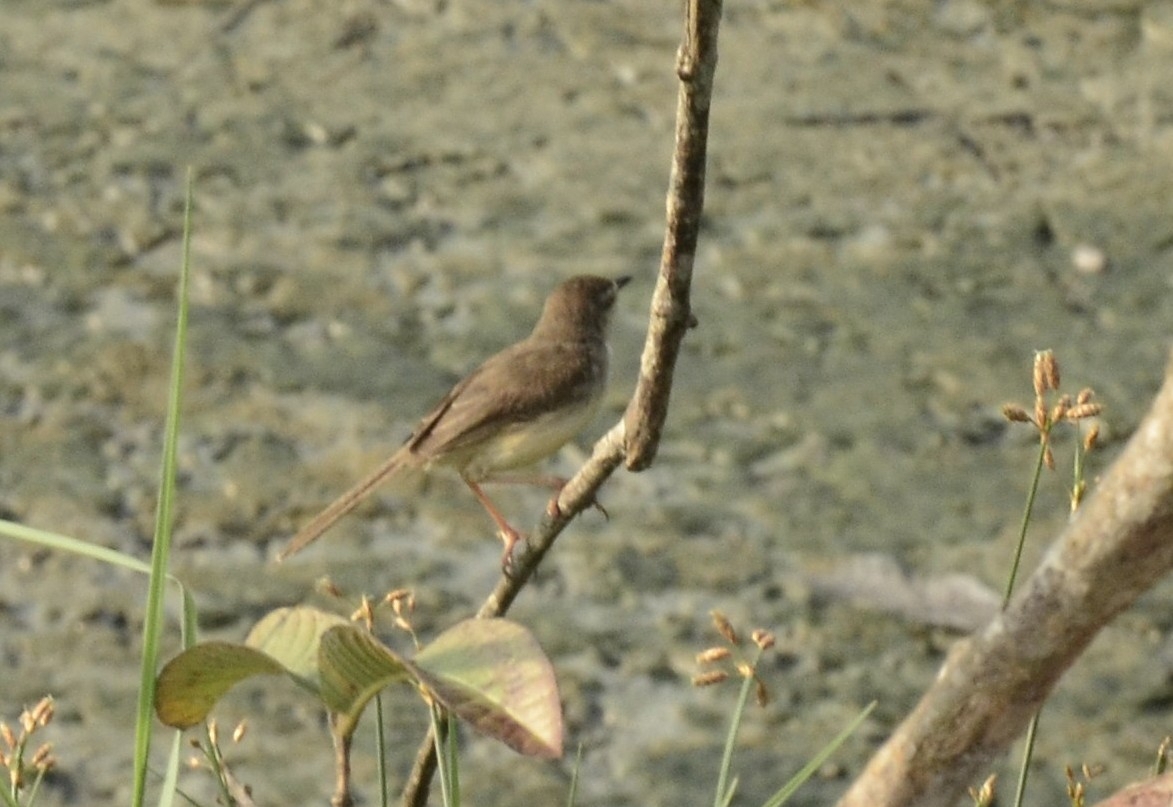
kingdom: Animalia
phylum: Chordata
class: Aves
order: Passeriformes
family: Cisticolidae
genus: Prinia
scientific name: Prinia inornata
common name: Plain prinia
